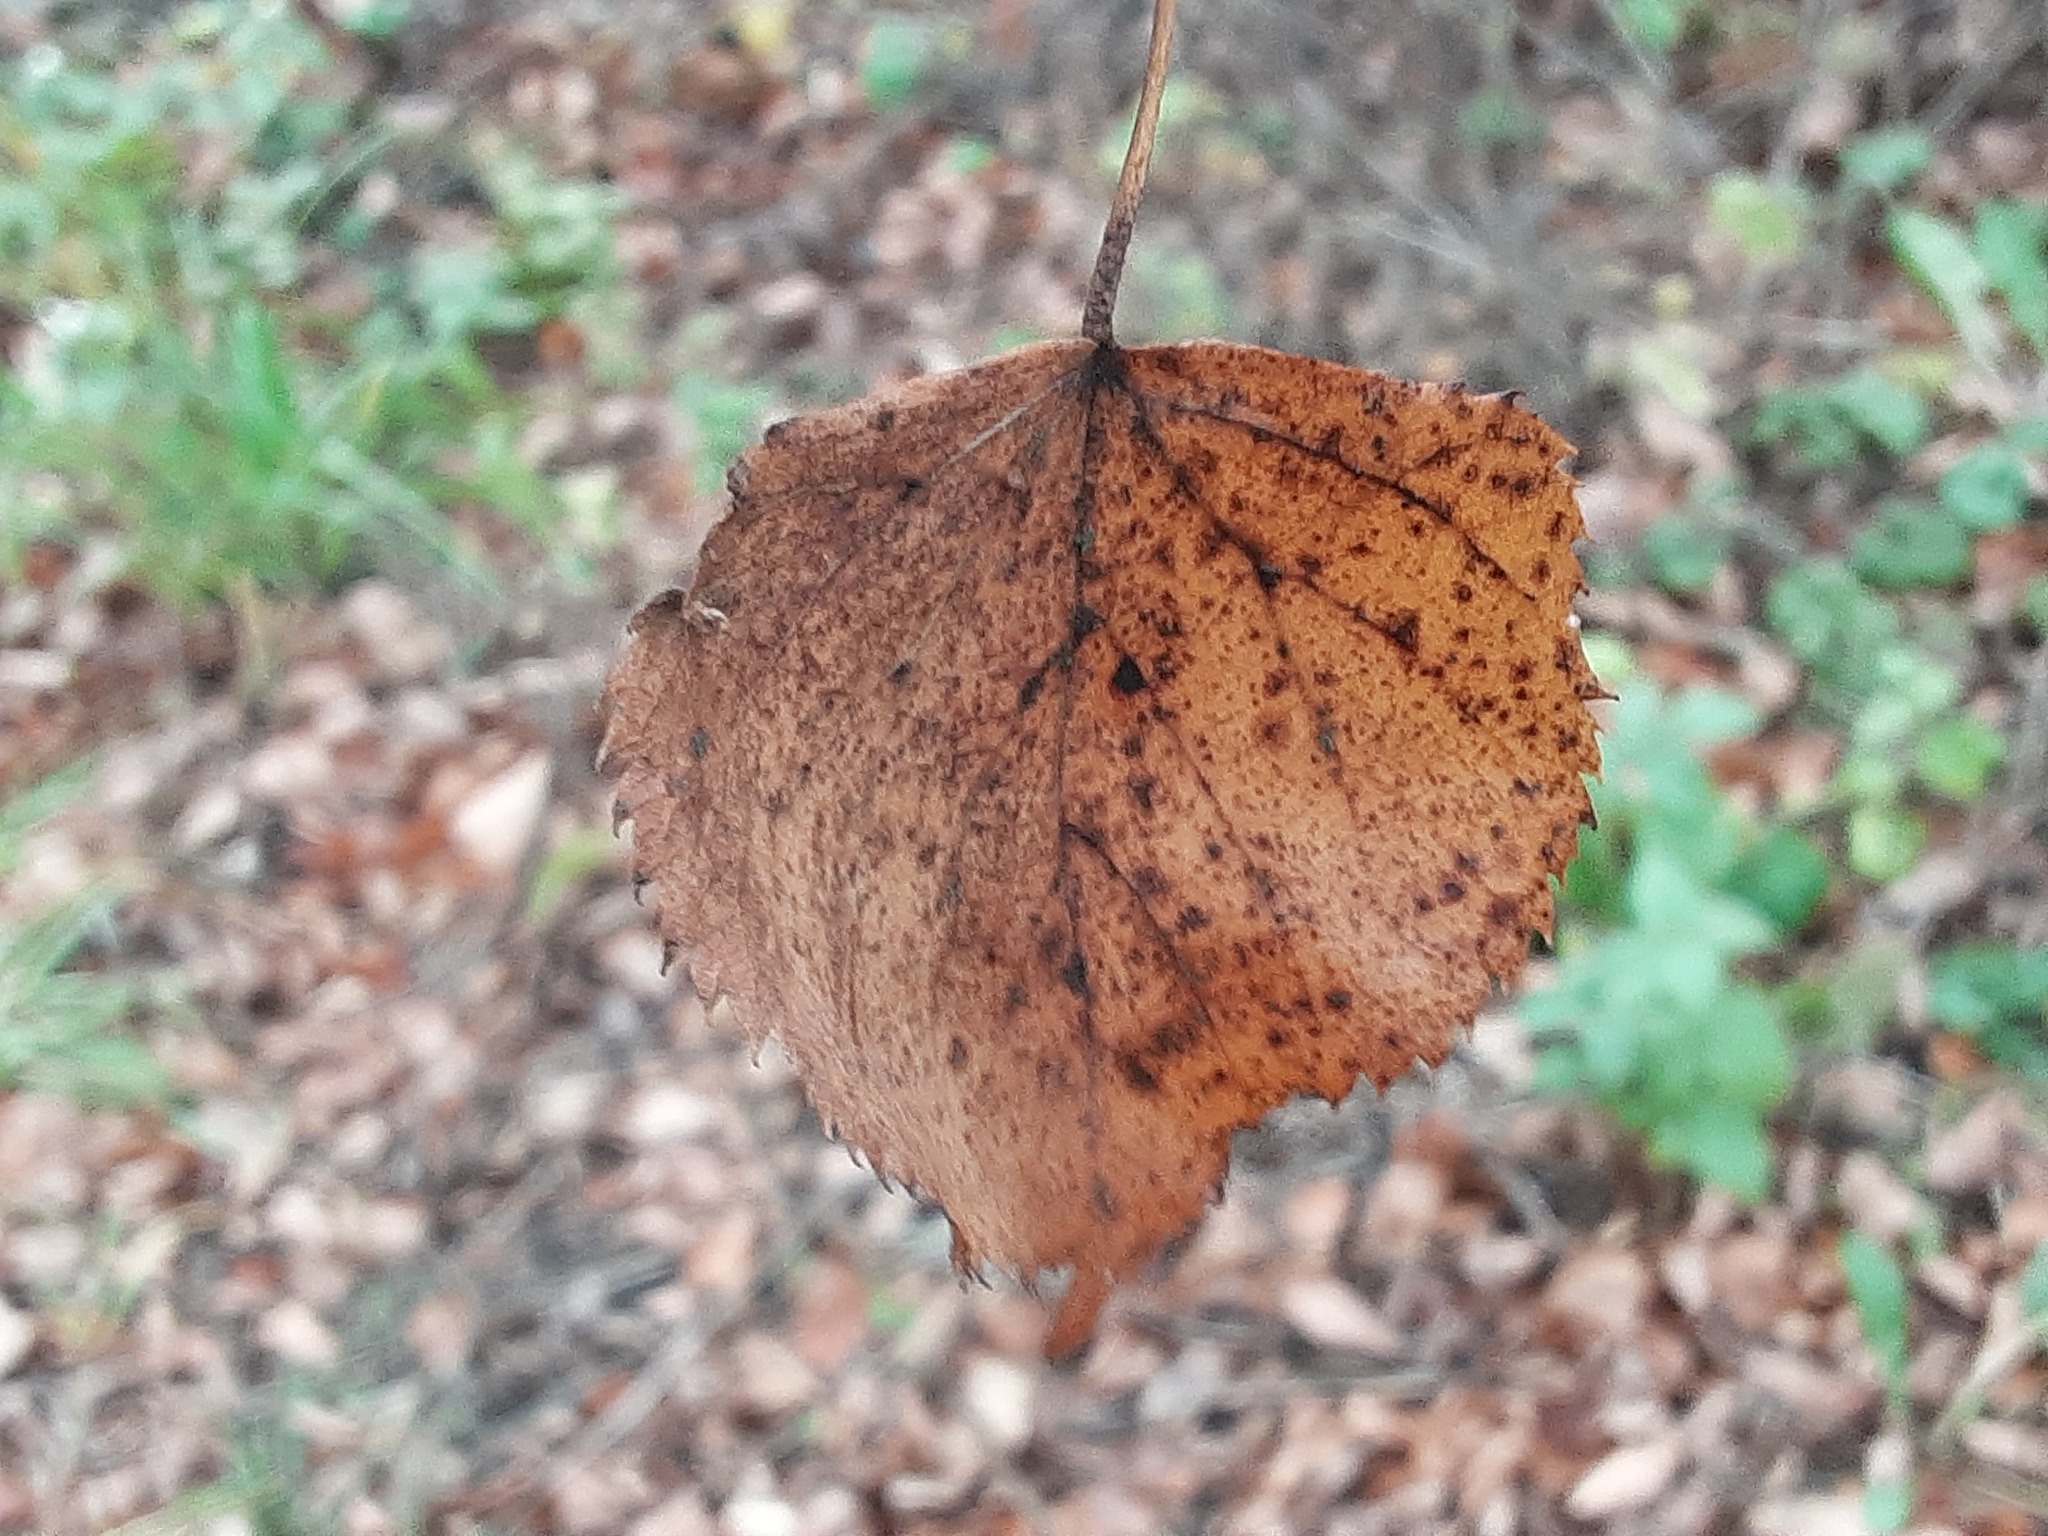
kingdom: Plantae
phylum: Tracheophyta
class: Magnoliopsida
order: Malvales
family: Malvaceae
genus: Tilia
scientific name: Tilia cordata
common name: Small-leaved lime
